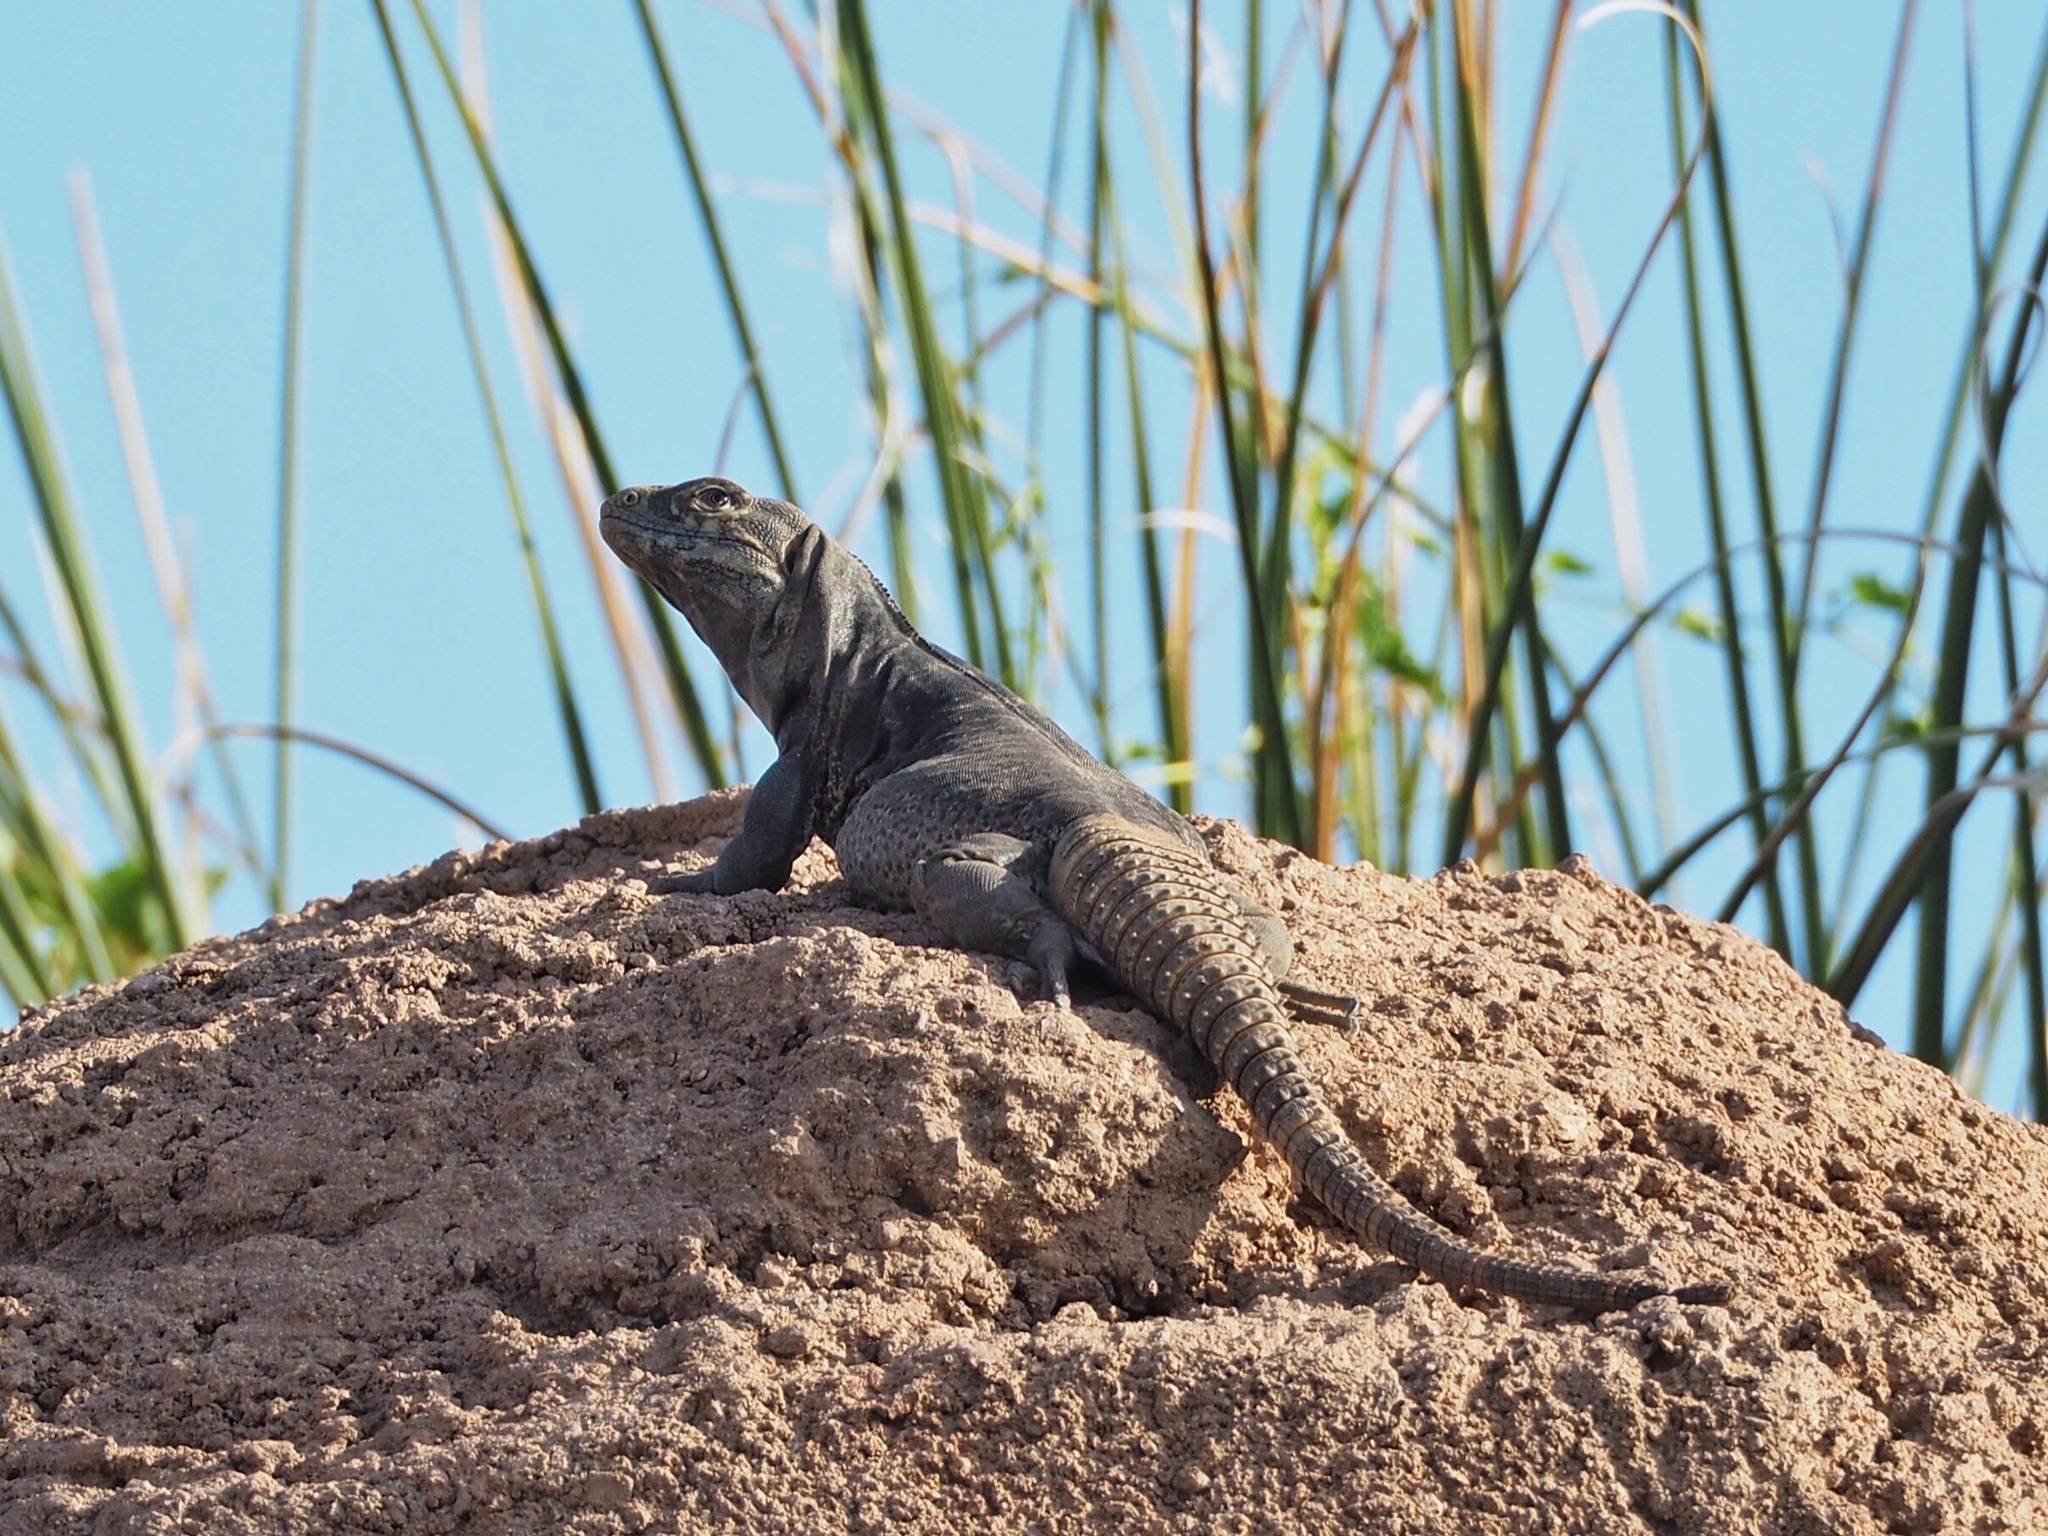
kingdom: Animalia
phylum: Chordata
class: Squamata
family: Iguanidae
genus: Ctenosaura
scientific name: Ctenosaura
